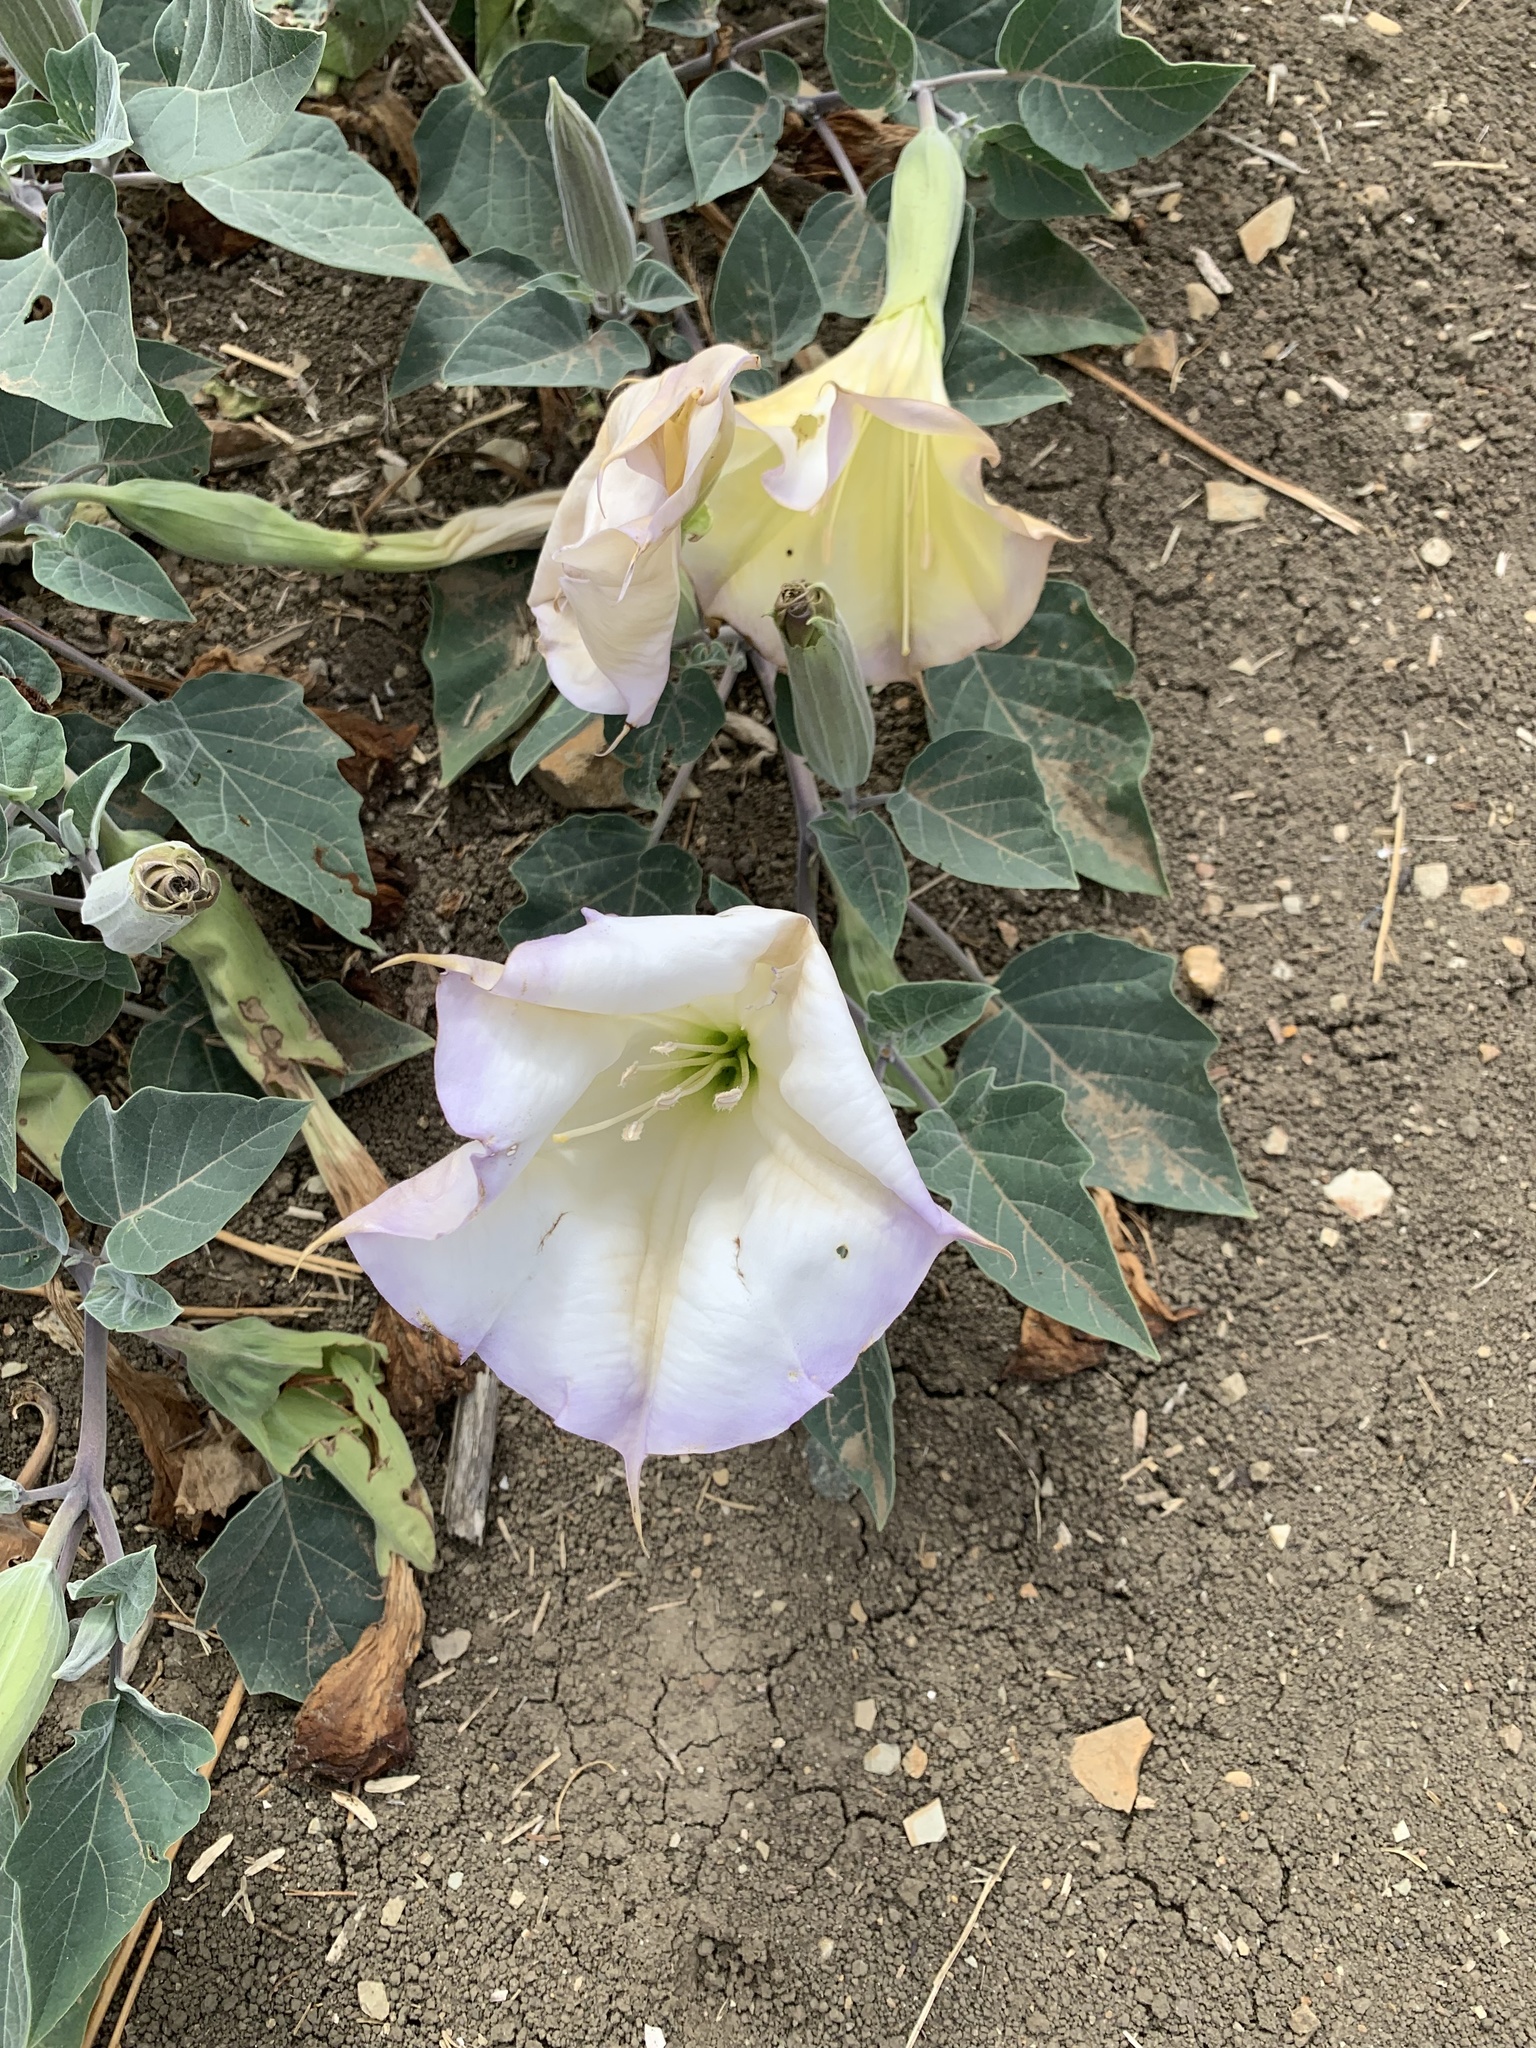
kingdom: Plantae
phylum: Tracheophyta
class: Magnoliopsida
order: Solanales
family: Solanaceae
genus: Datura
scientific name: Datura wrightii
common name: Sacred thorn-apple
